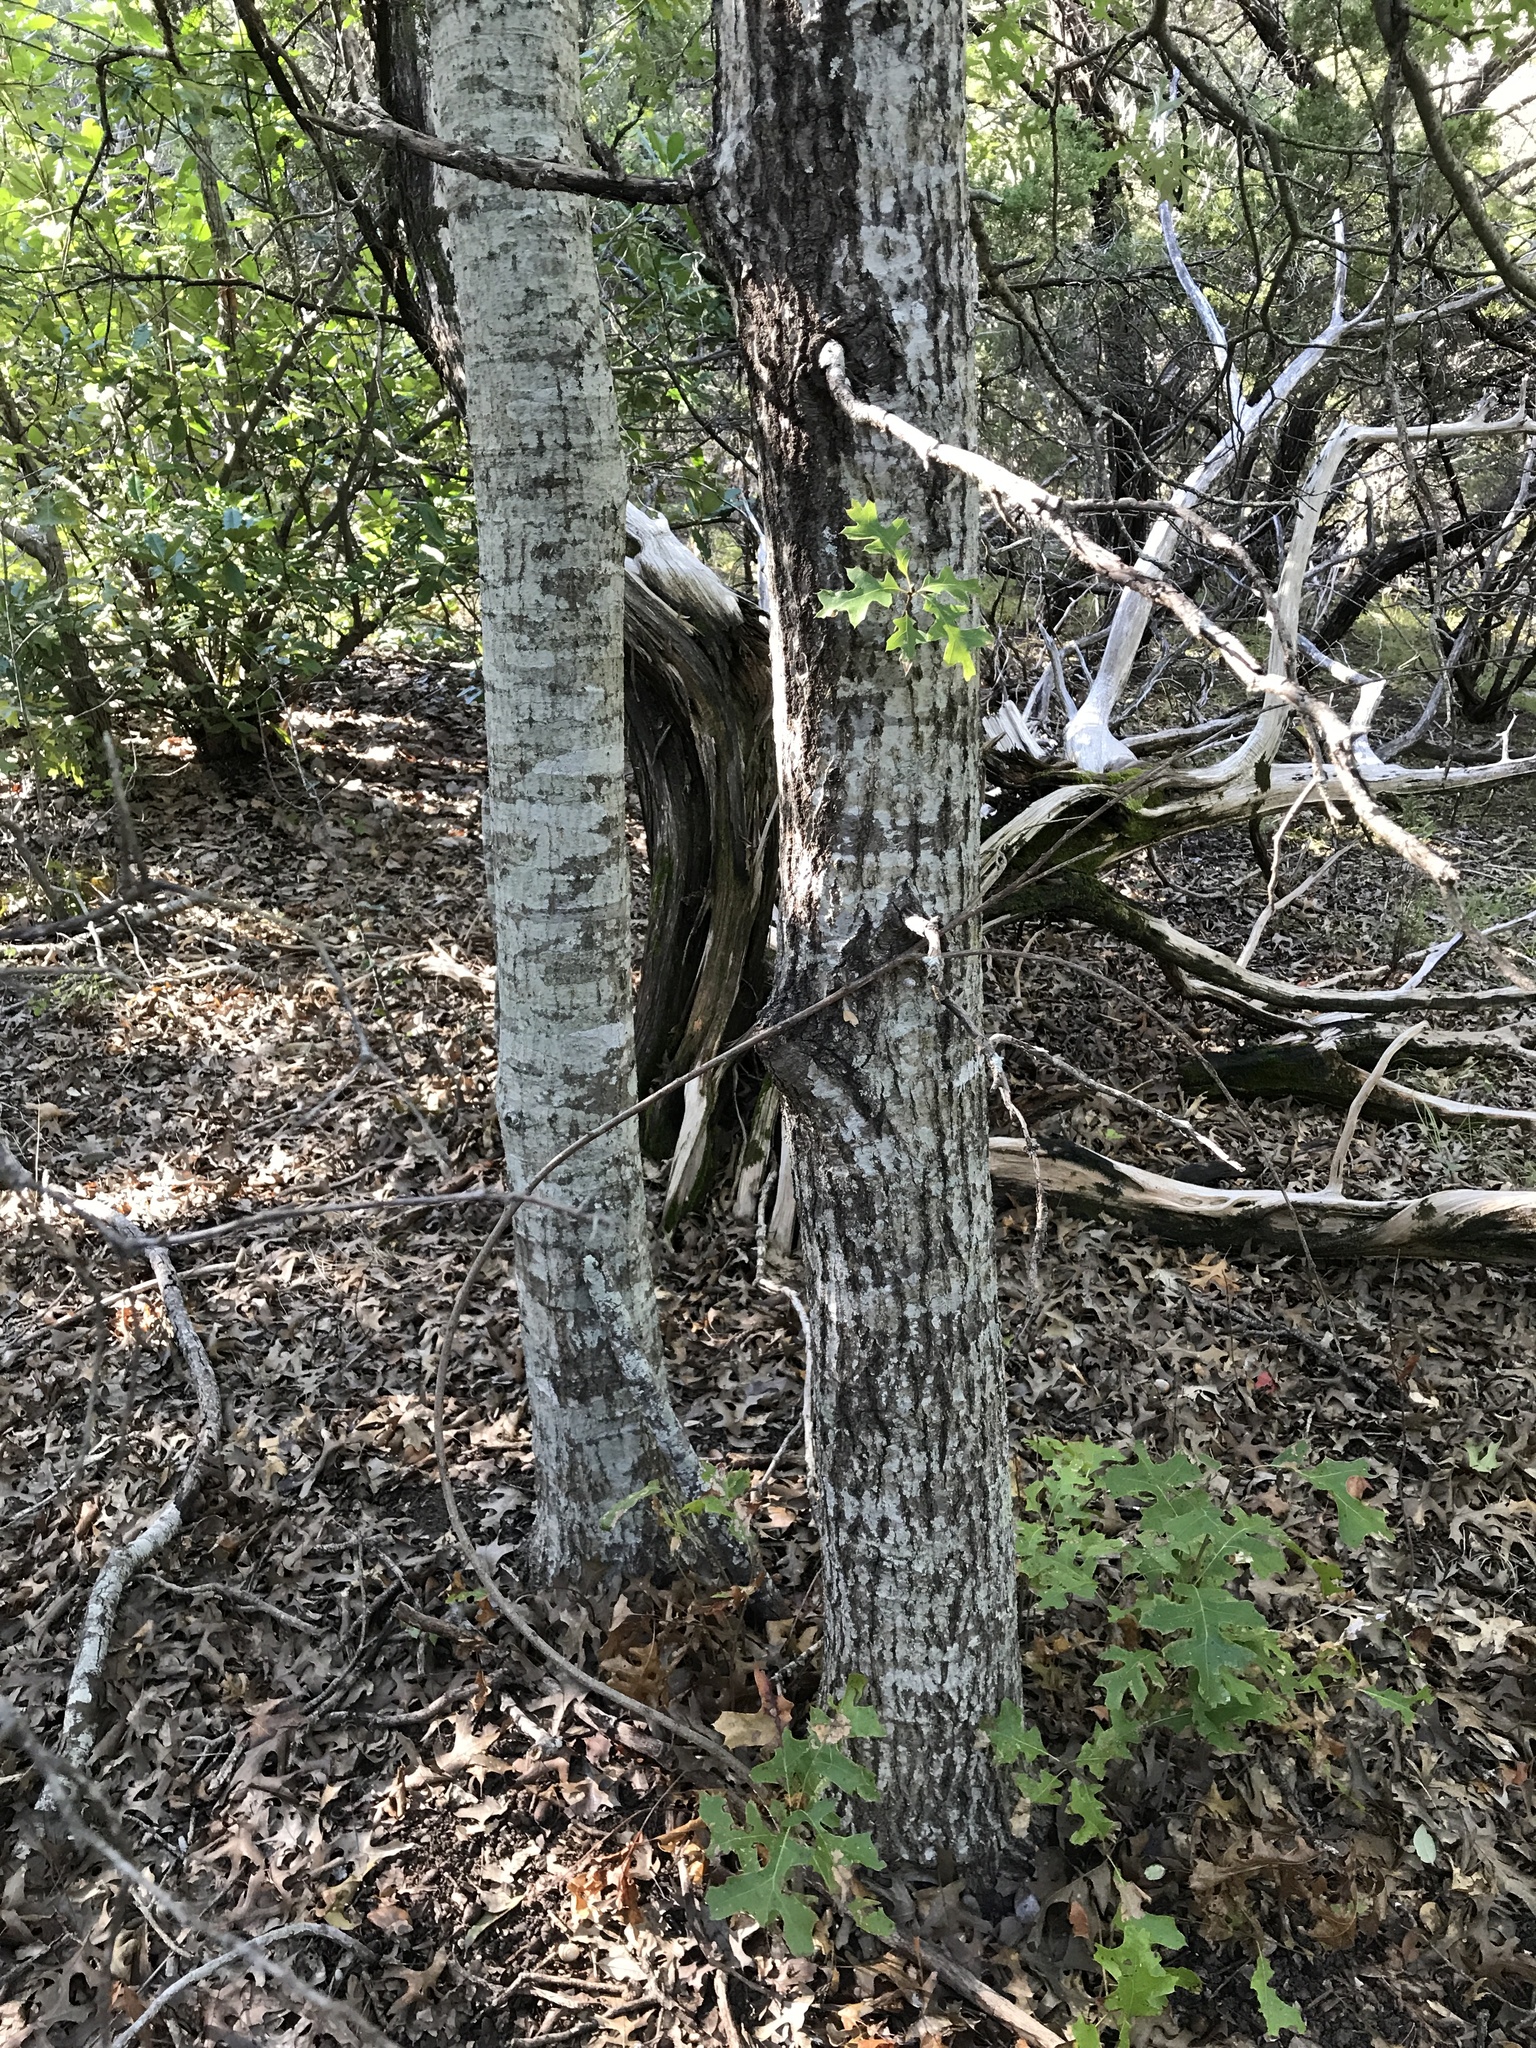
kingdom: Plantae
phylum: Tracheophyta
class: Magnoliopsida
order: Fagales
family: Fagaceae
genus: Quercus
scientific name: Quercus buckleyi
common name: Buckley oak
